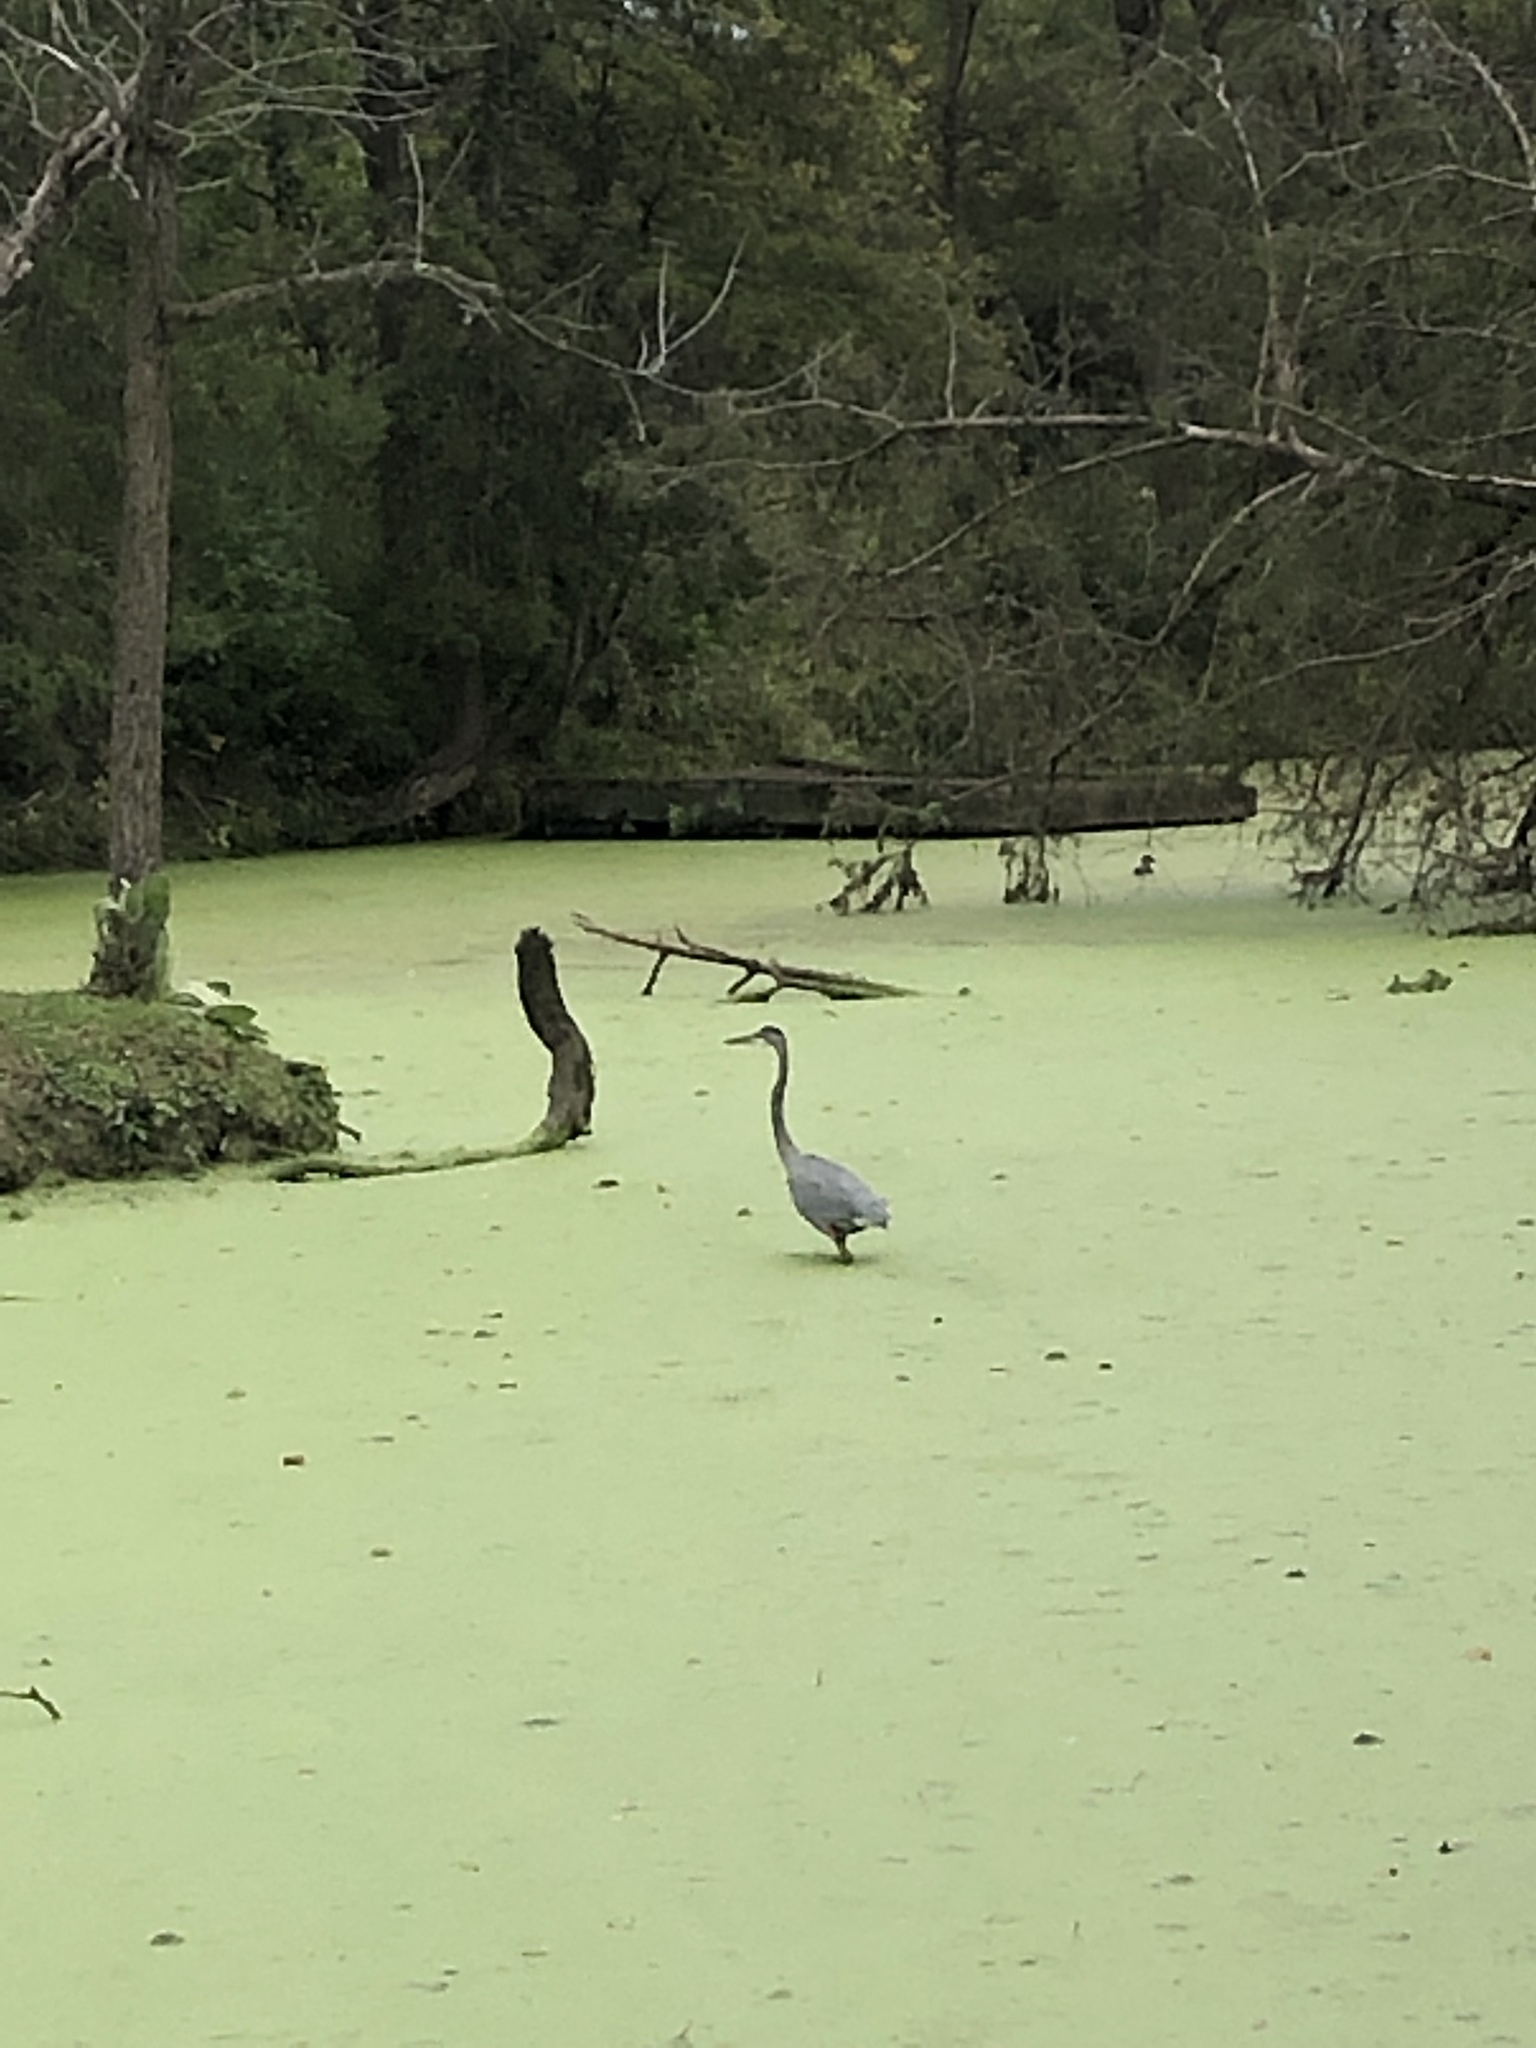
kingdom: Animalia
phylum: Chordata
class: Aves
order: Pelecaniformes
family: Ardeidae
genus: Ardea
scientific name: Ardea herodias
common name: Great blue heron
